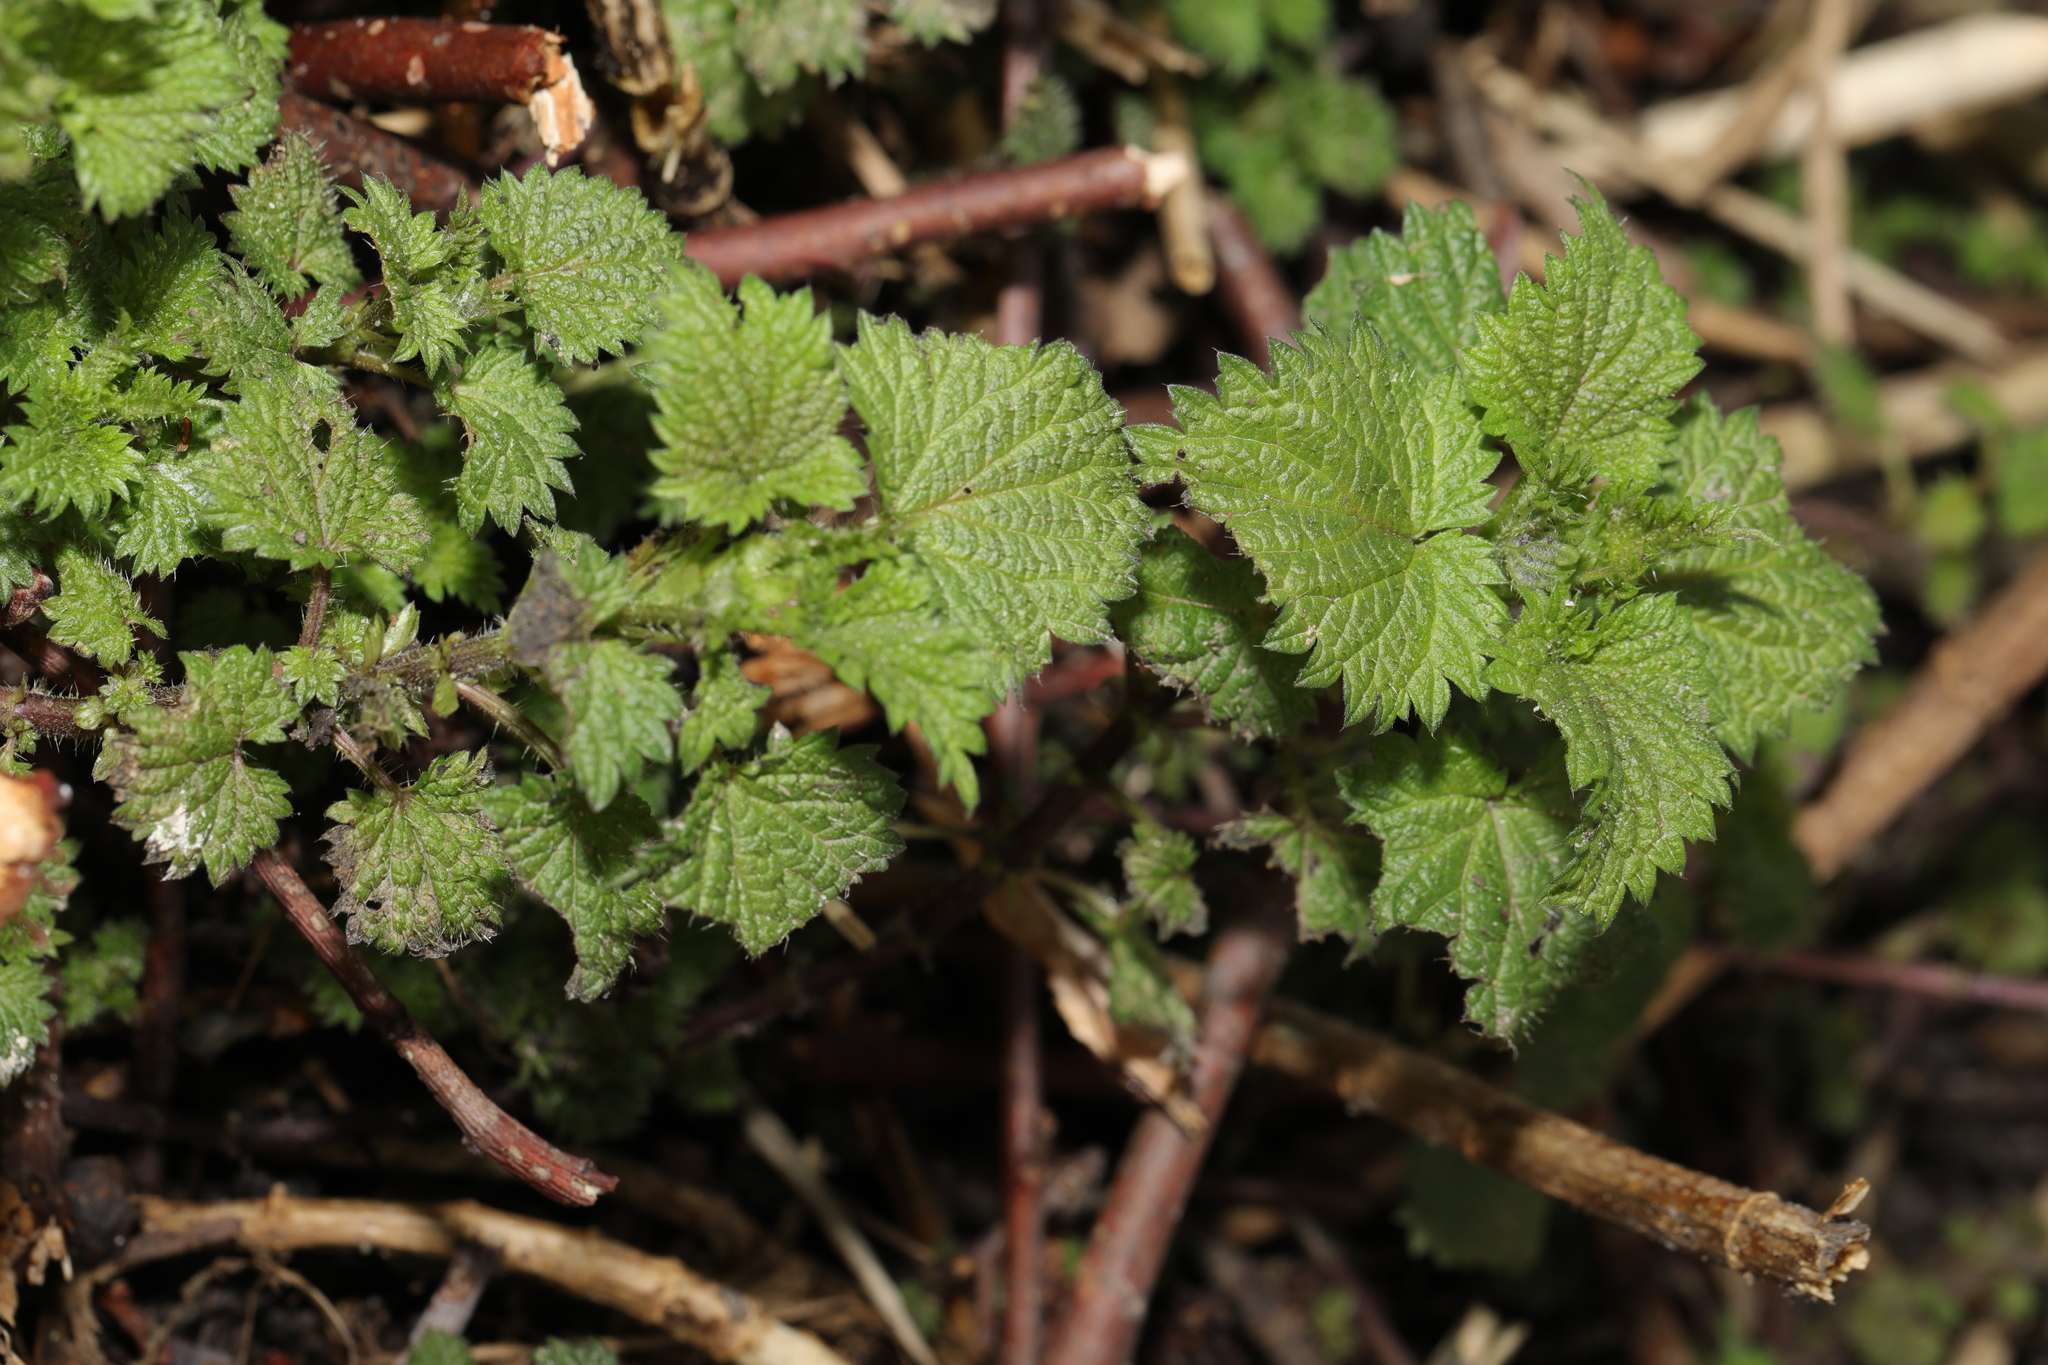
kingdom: Plantae
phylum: Tracheophyta
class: Magnoliopsida
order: Rosales
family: Urticaceae
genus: Urtica
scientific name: Urtica dioica
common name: Common nettle
